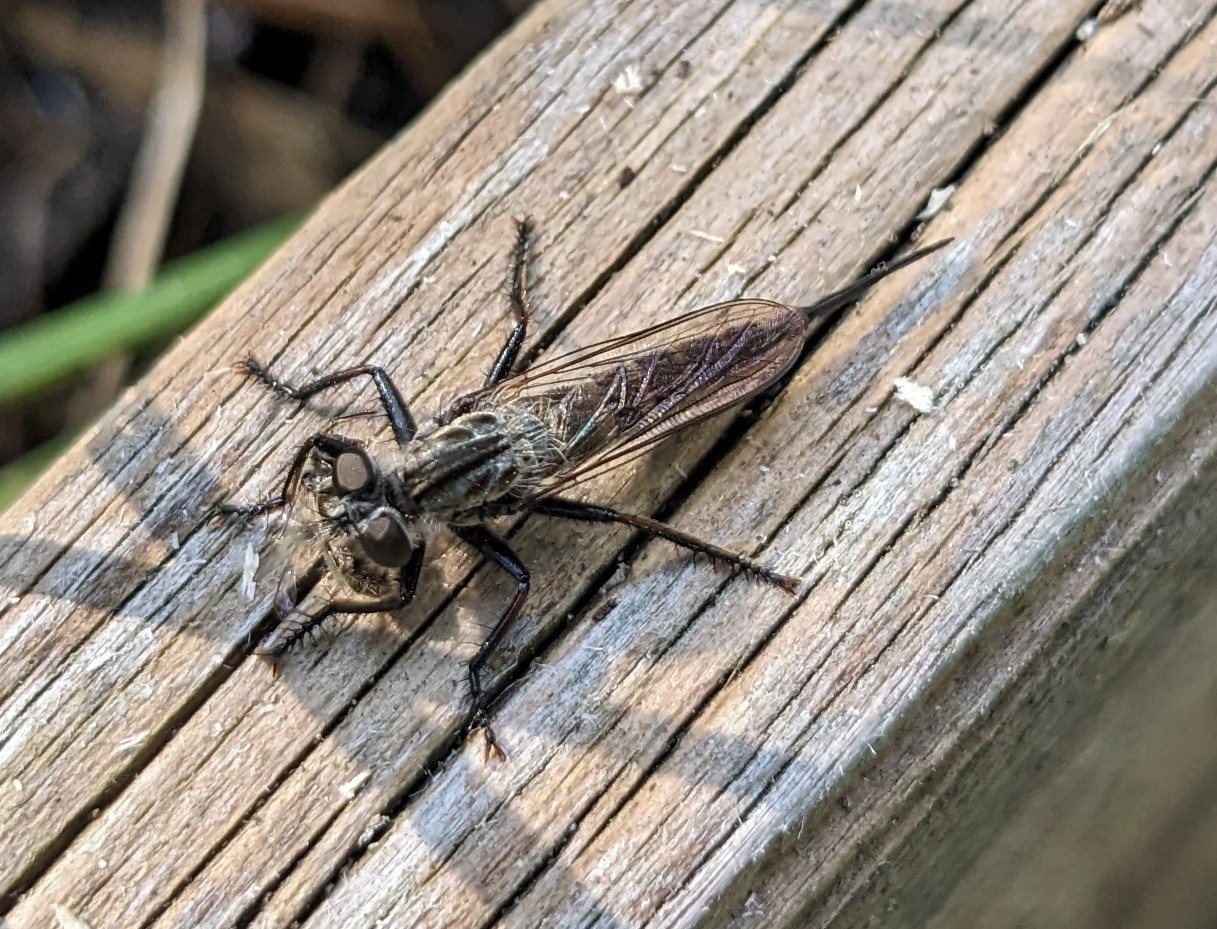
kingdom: Animalia
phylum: Arthropoda
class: Insecta
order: Diptera
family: Asilidae
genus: Efferia
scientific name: Efferia aestuans
